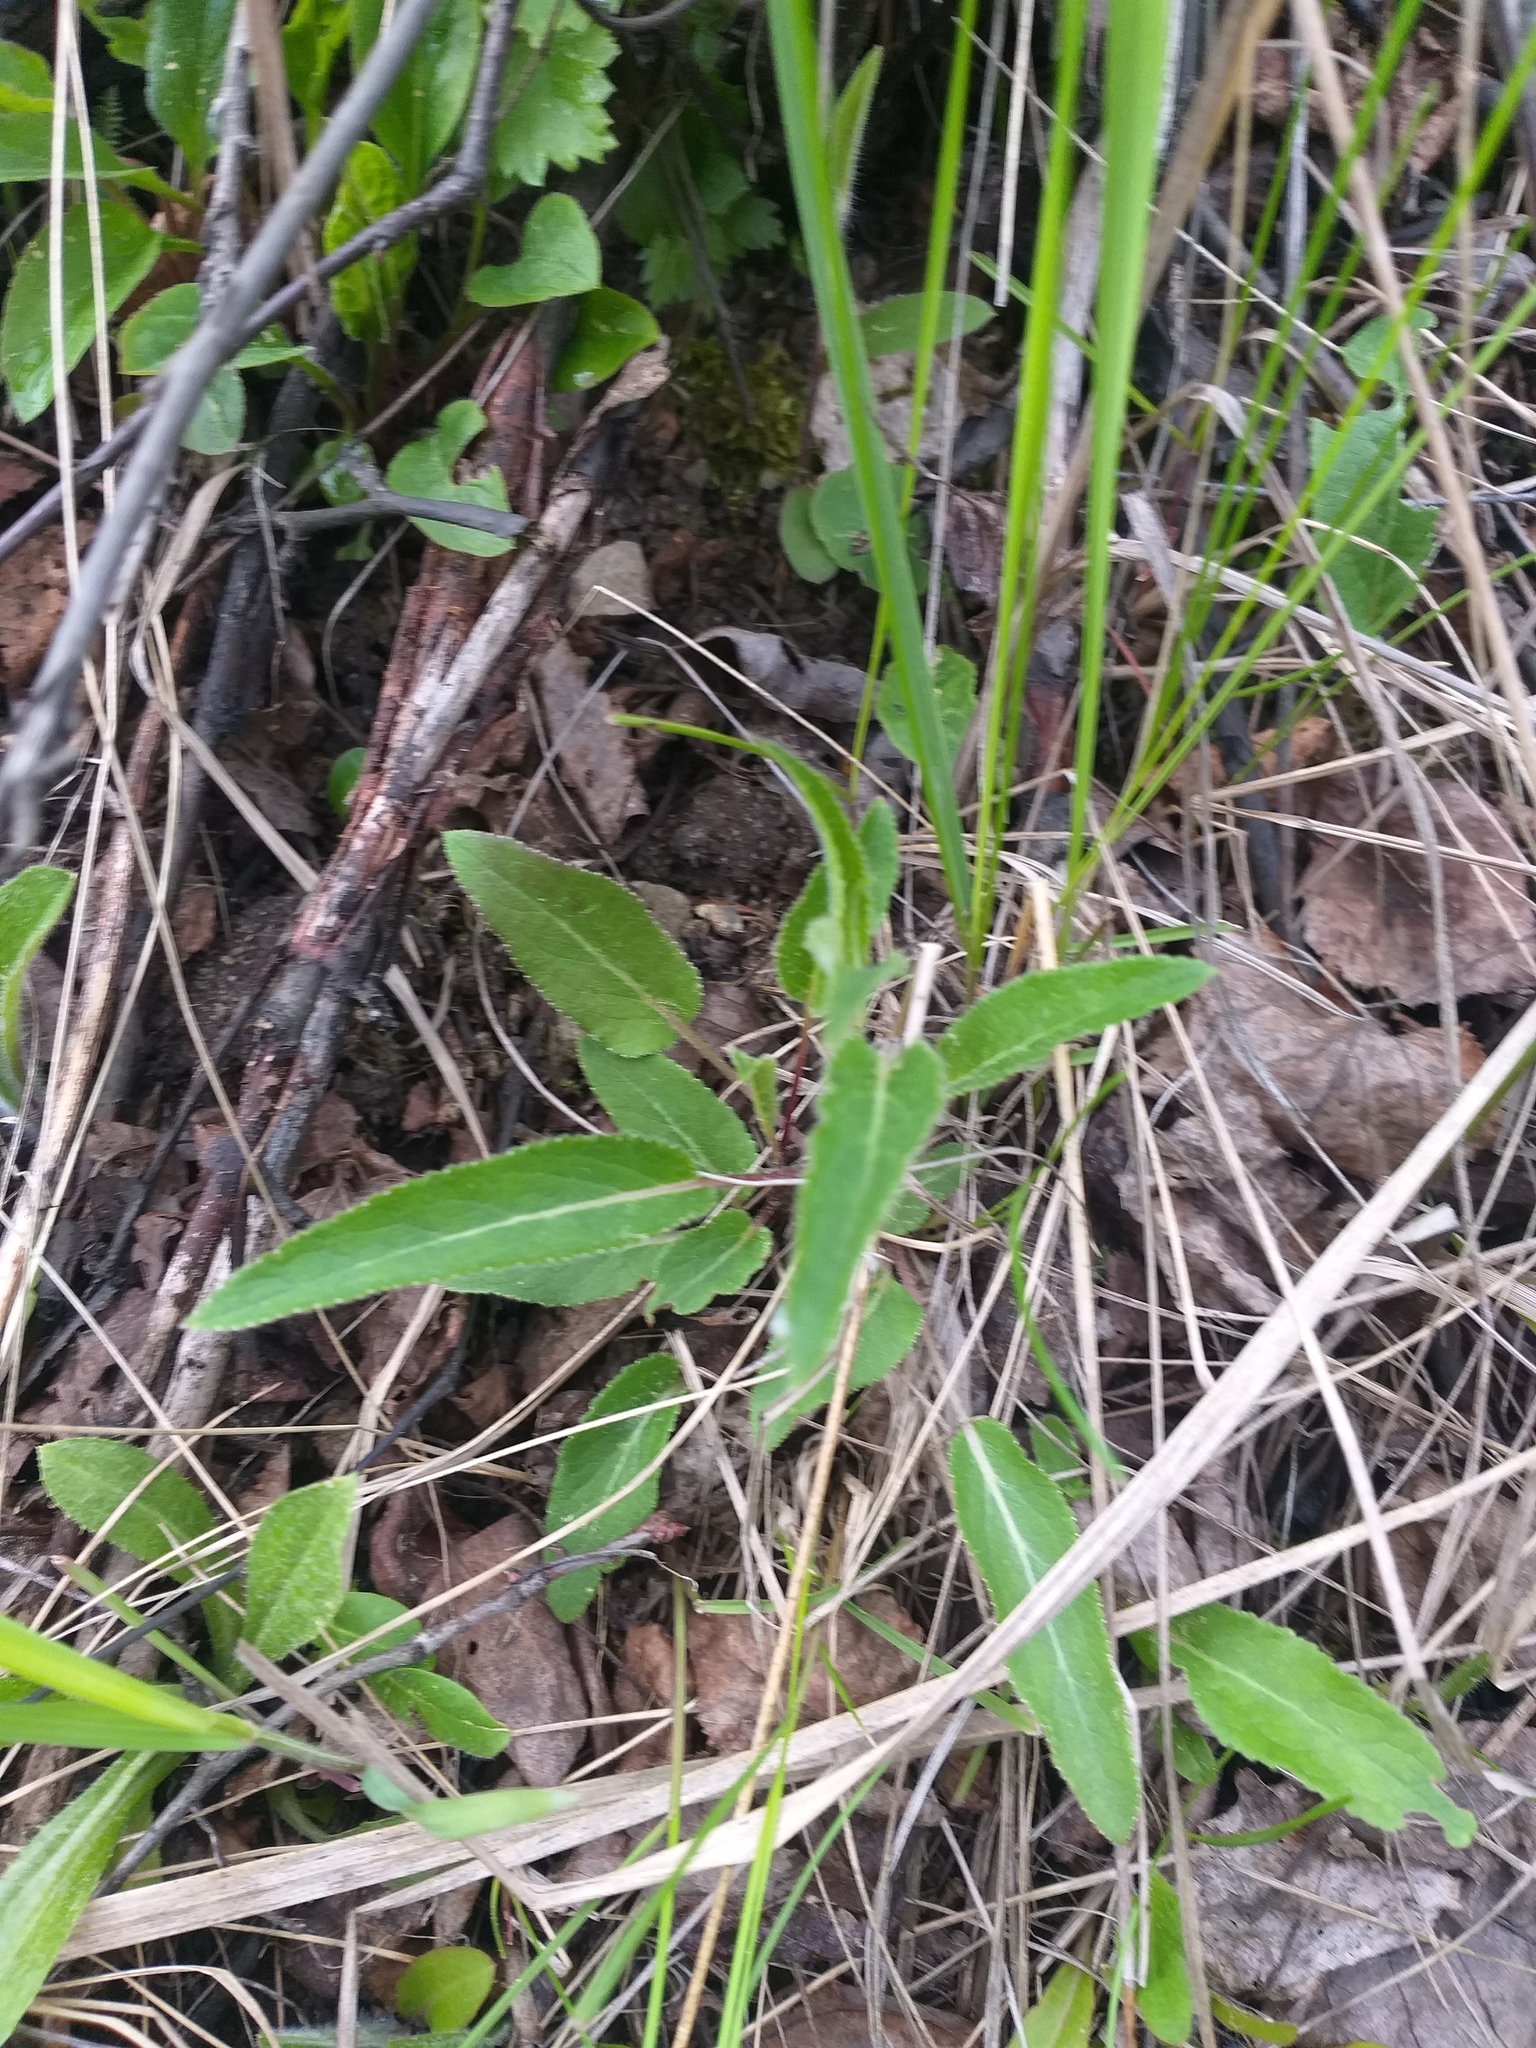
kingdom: Plantae
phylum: Tracheophyta
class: Magnoliopsida
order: Asterales
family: Campanulaceae
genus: Campanula
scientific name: Campanula glomerata
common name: Clustered bellflower
